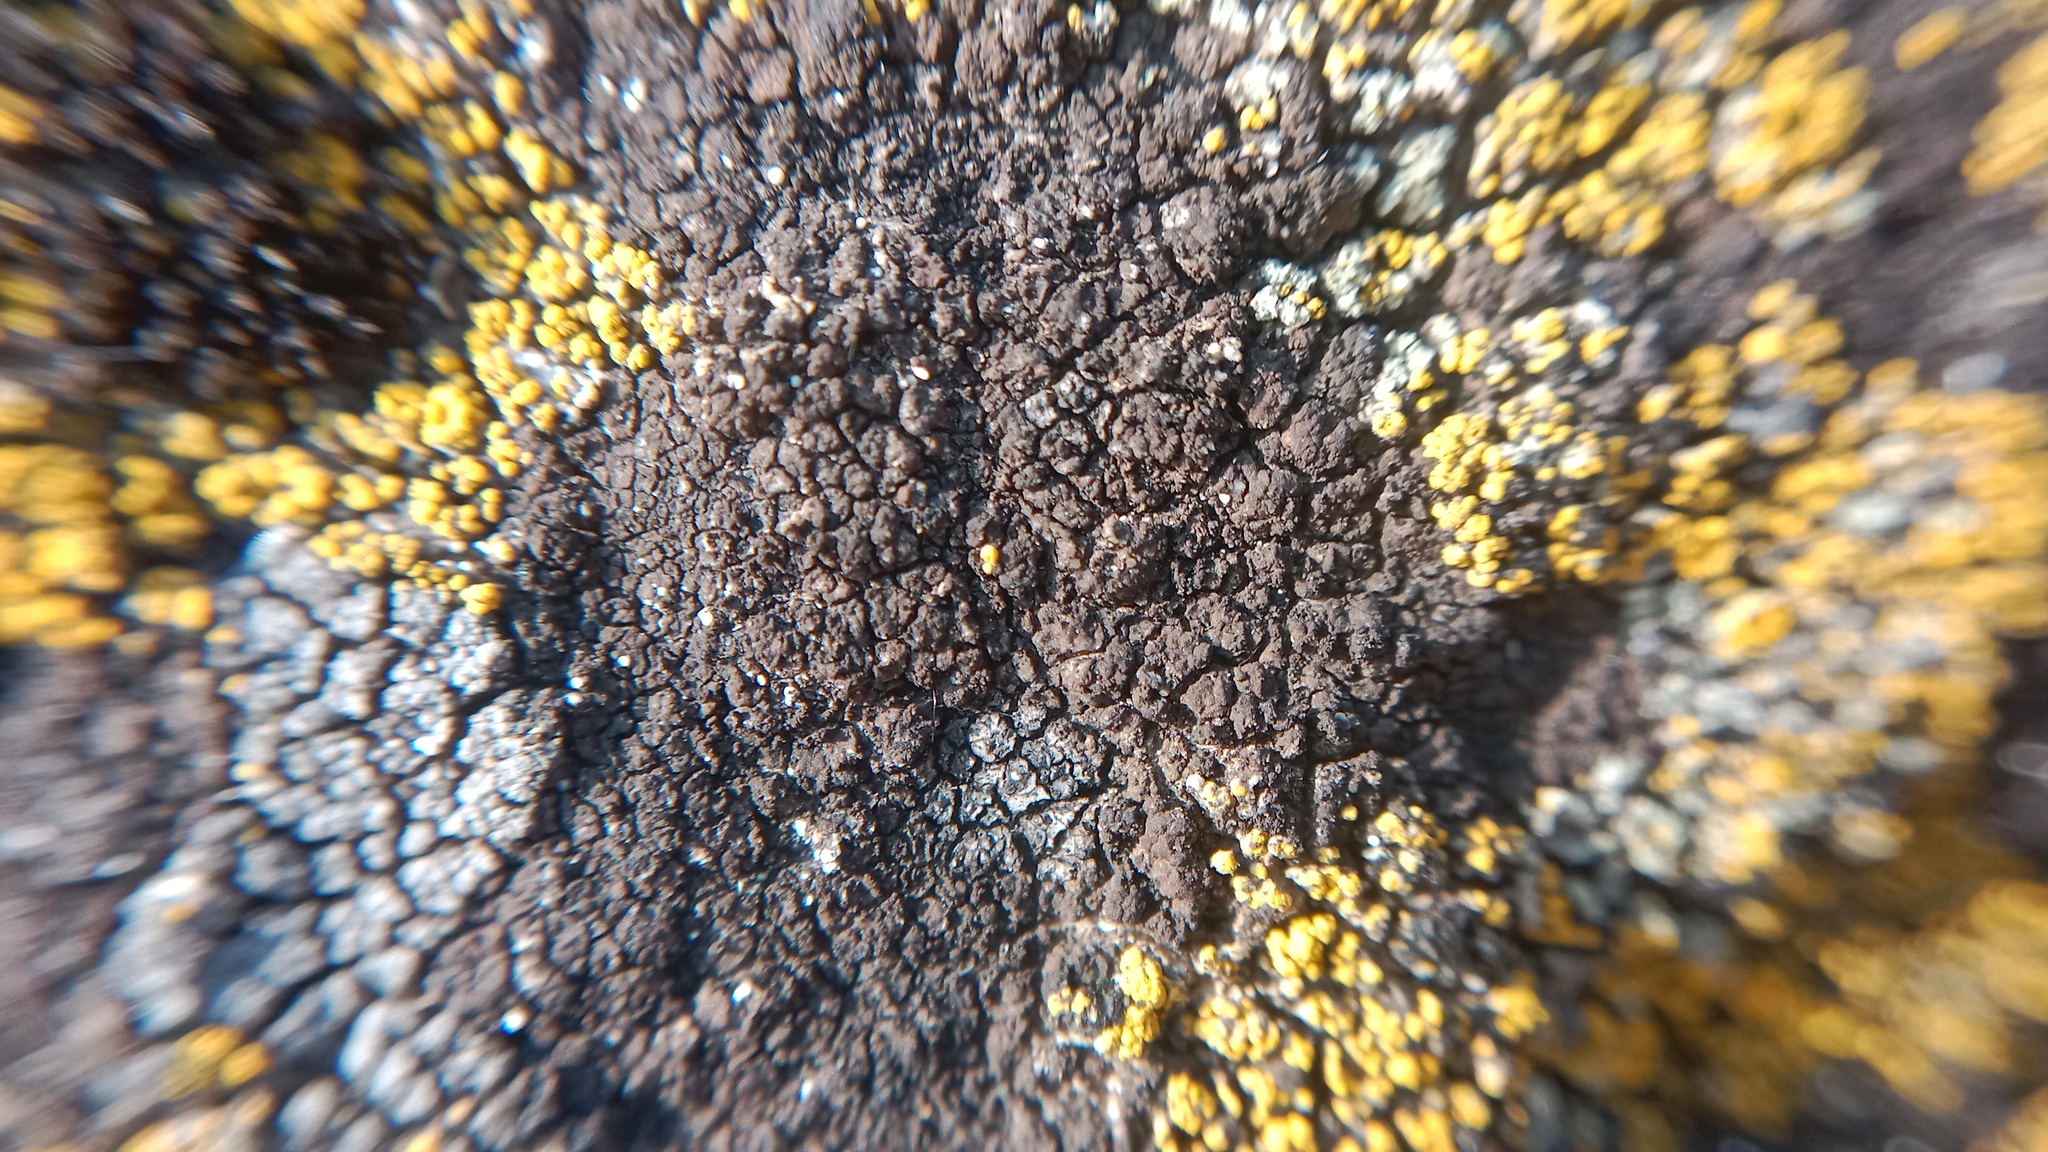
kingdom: Fungi
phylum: Ascomycota
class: Eurotiomycetes
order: Verrucariales
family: Verrucariaceae
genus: Verrucaria
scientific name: Verrucaria nigrescens
